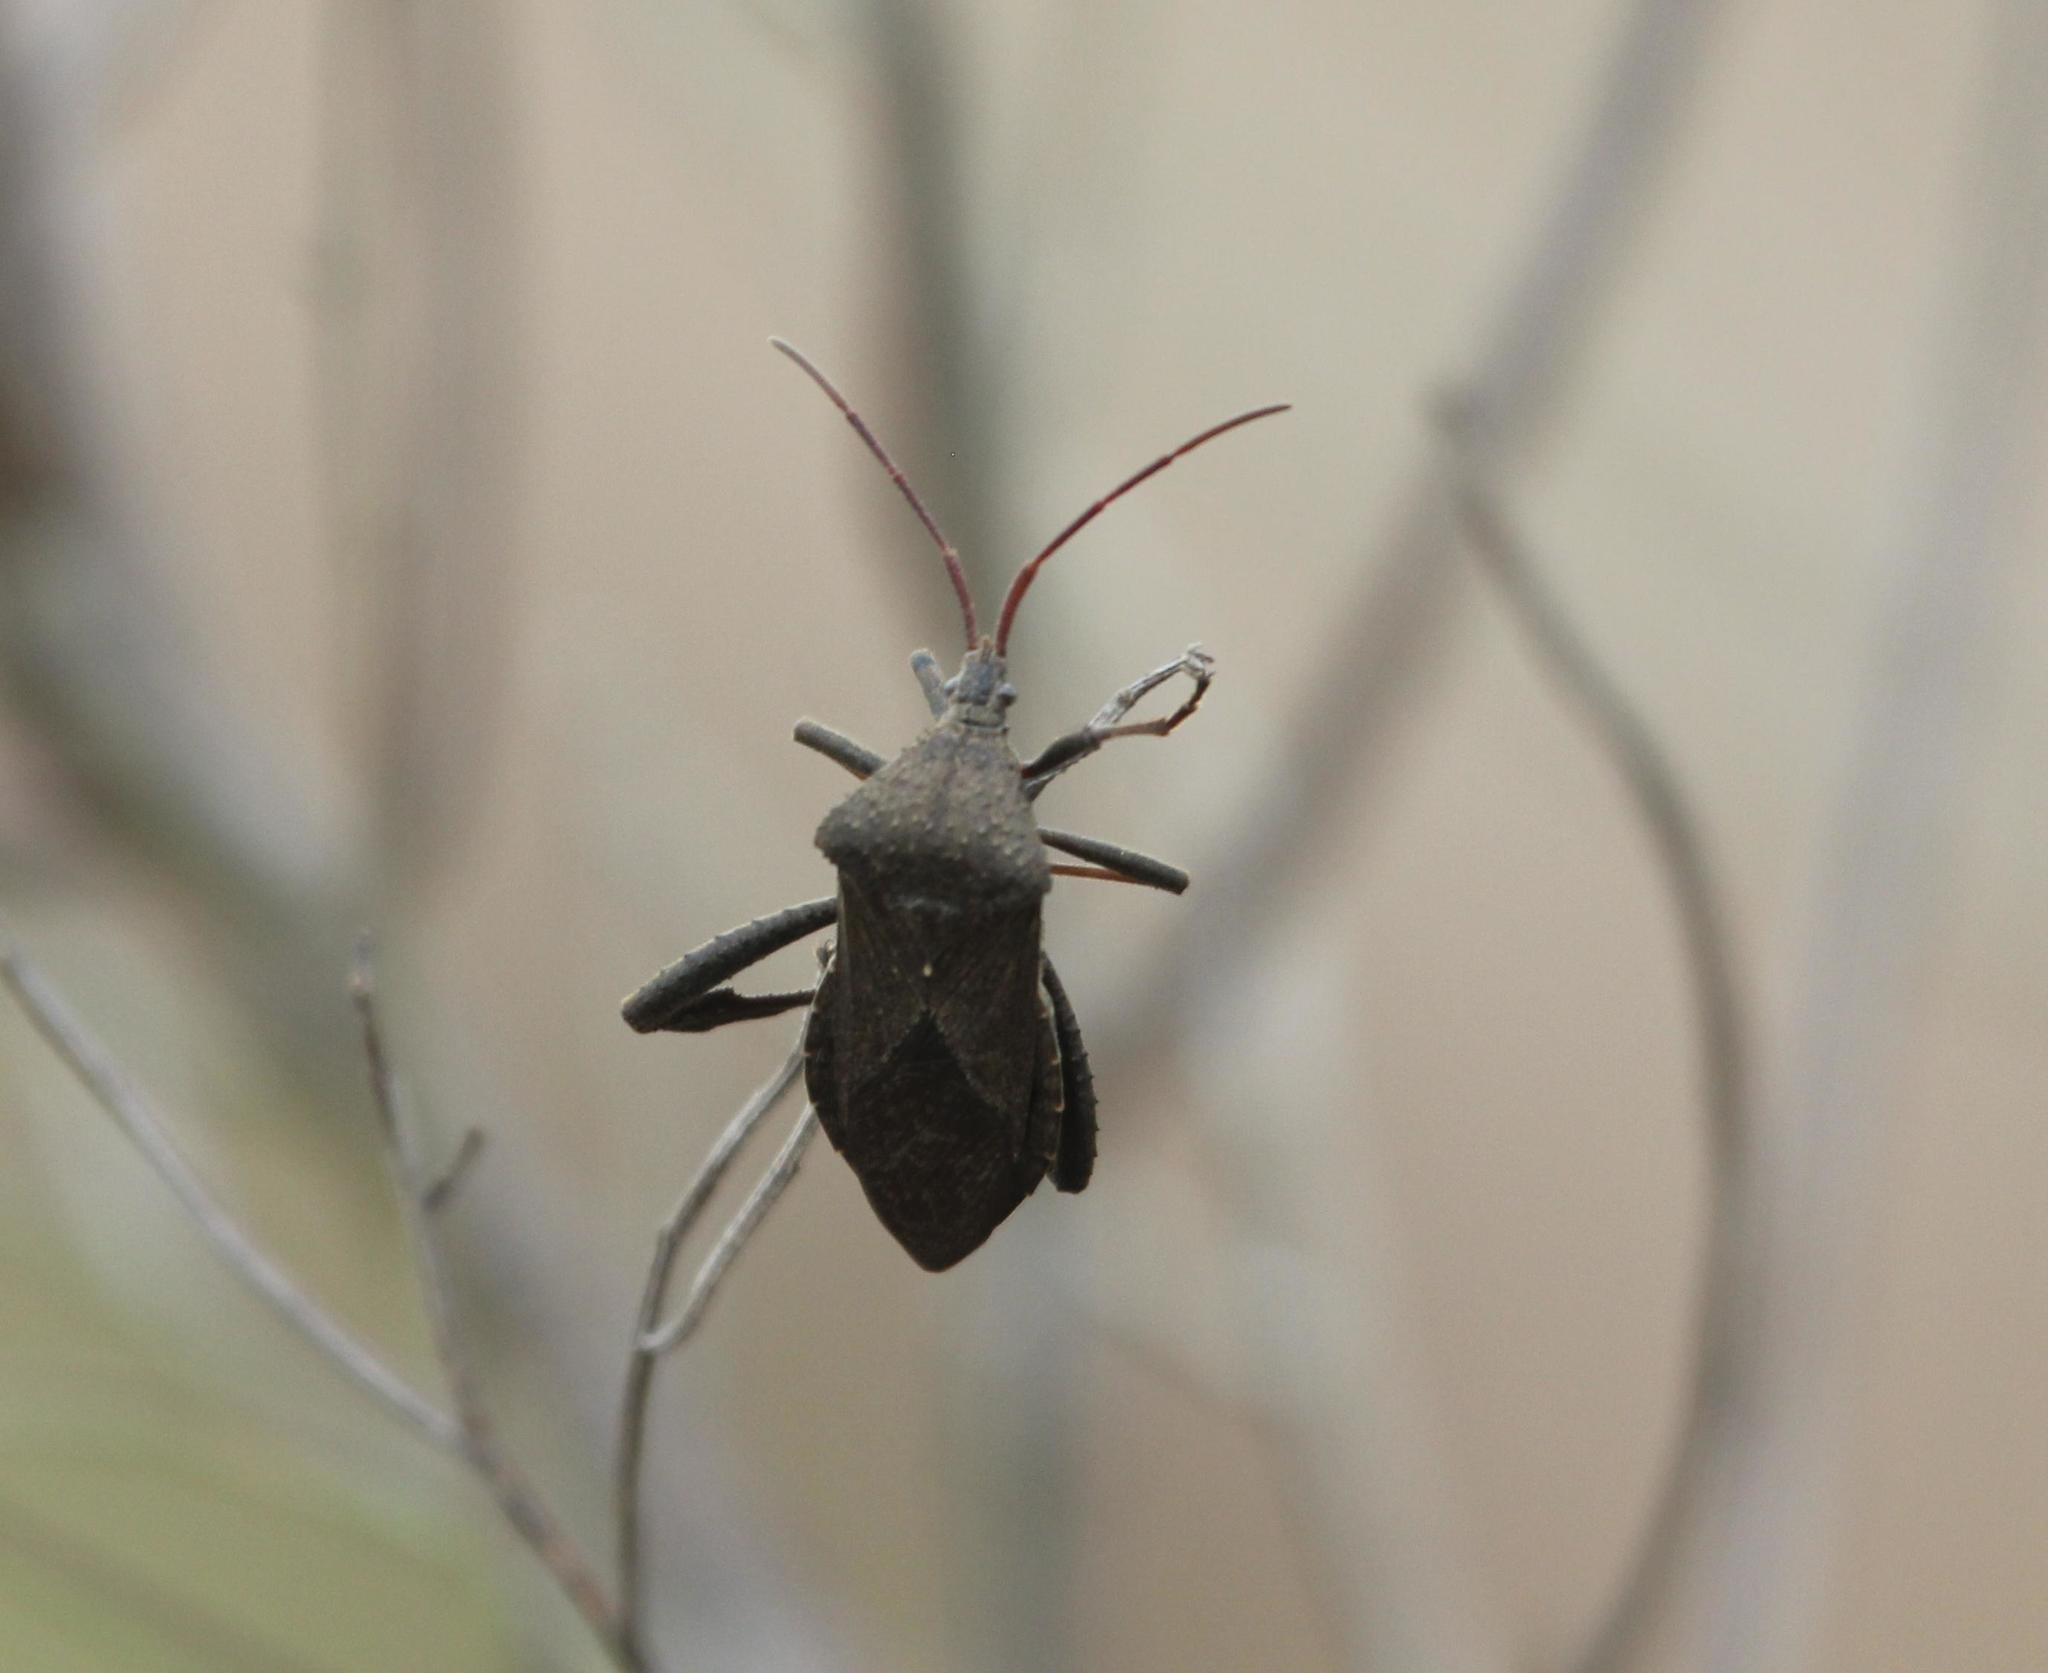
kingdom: Animalia
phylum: Arthropoda
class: Insecta
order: Hemiptera
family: Coreidae
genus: Acanthocephala
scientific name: Acanthocephala femorata
